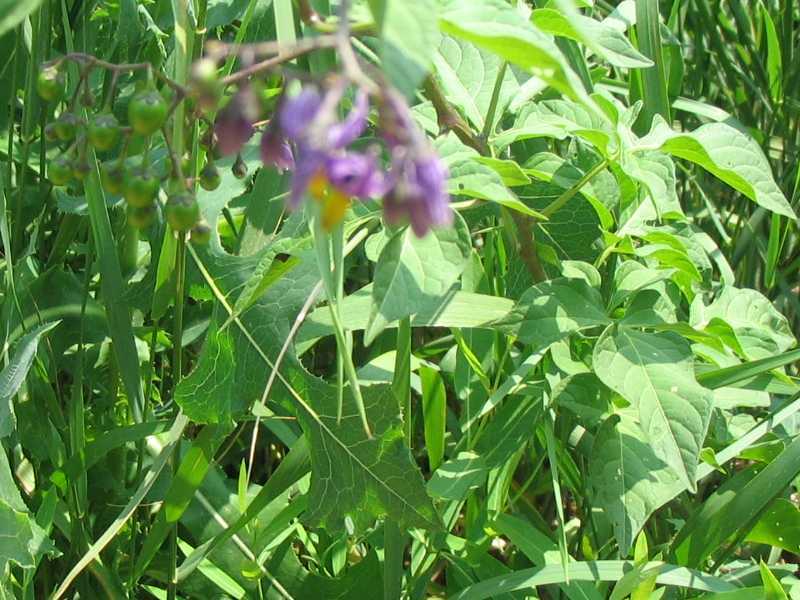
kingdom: Plantae
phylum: Tracheophyta
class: Magnoliopsida
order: Solanales
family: Solanaceae
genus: Solanum
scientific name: Solanum dulcamara
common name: Climbing nightshade
